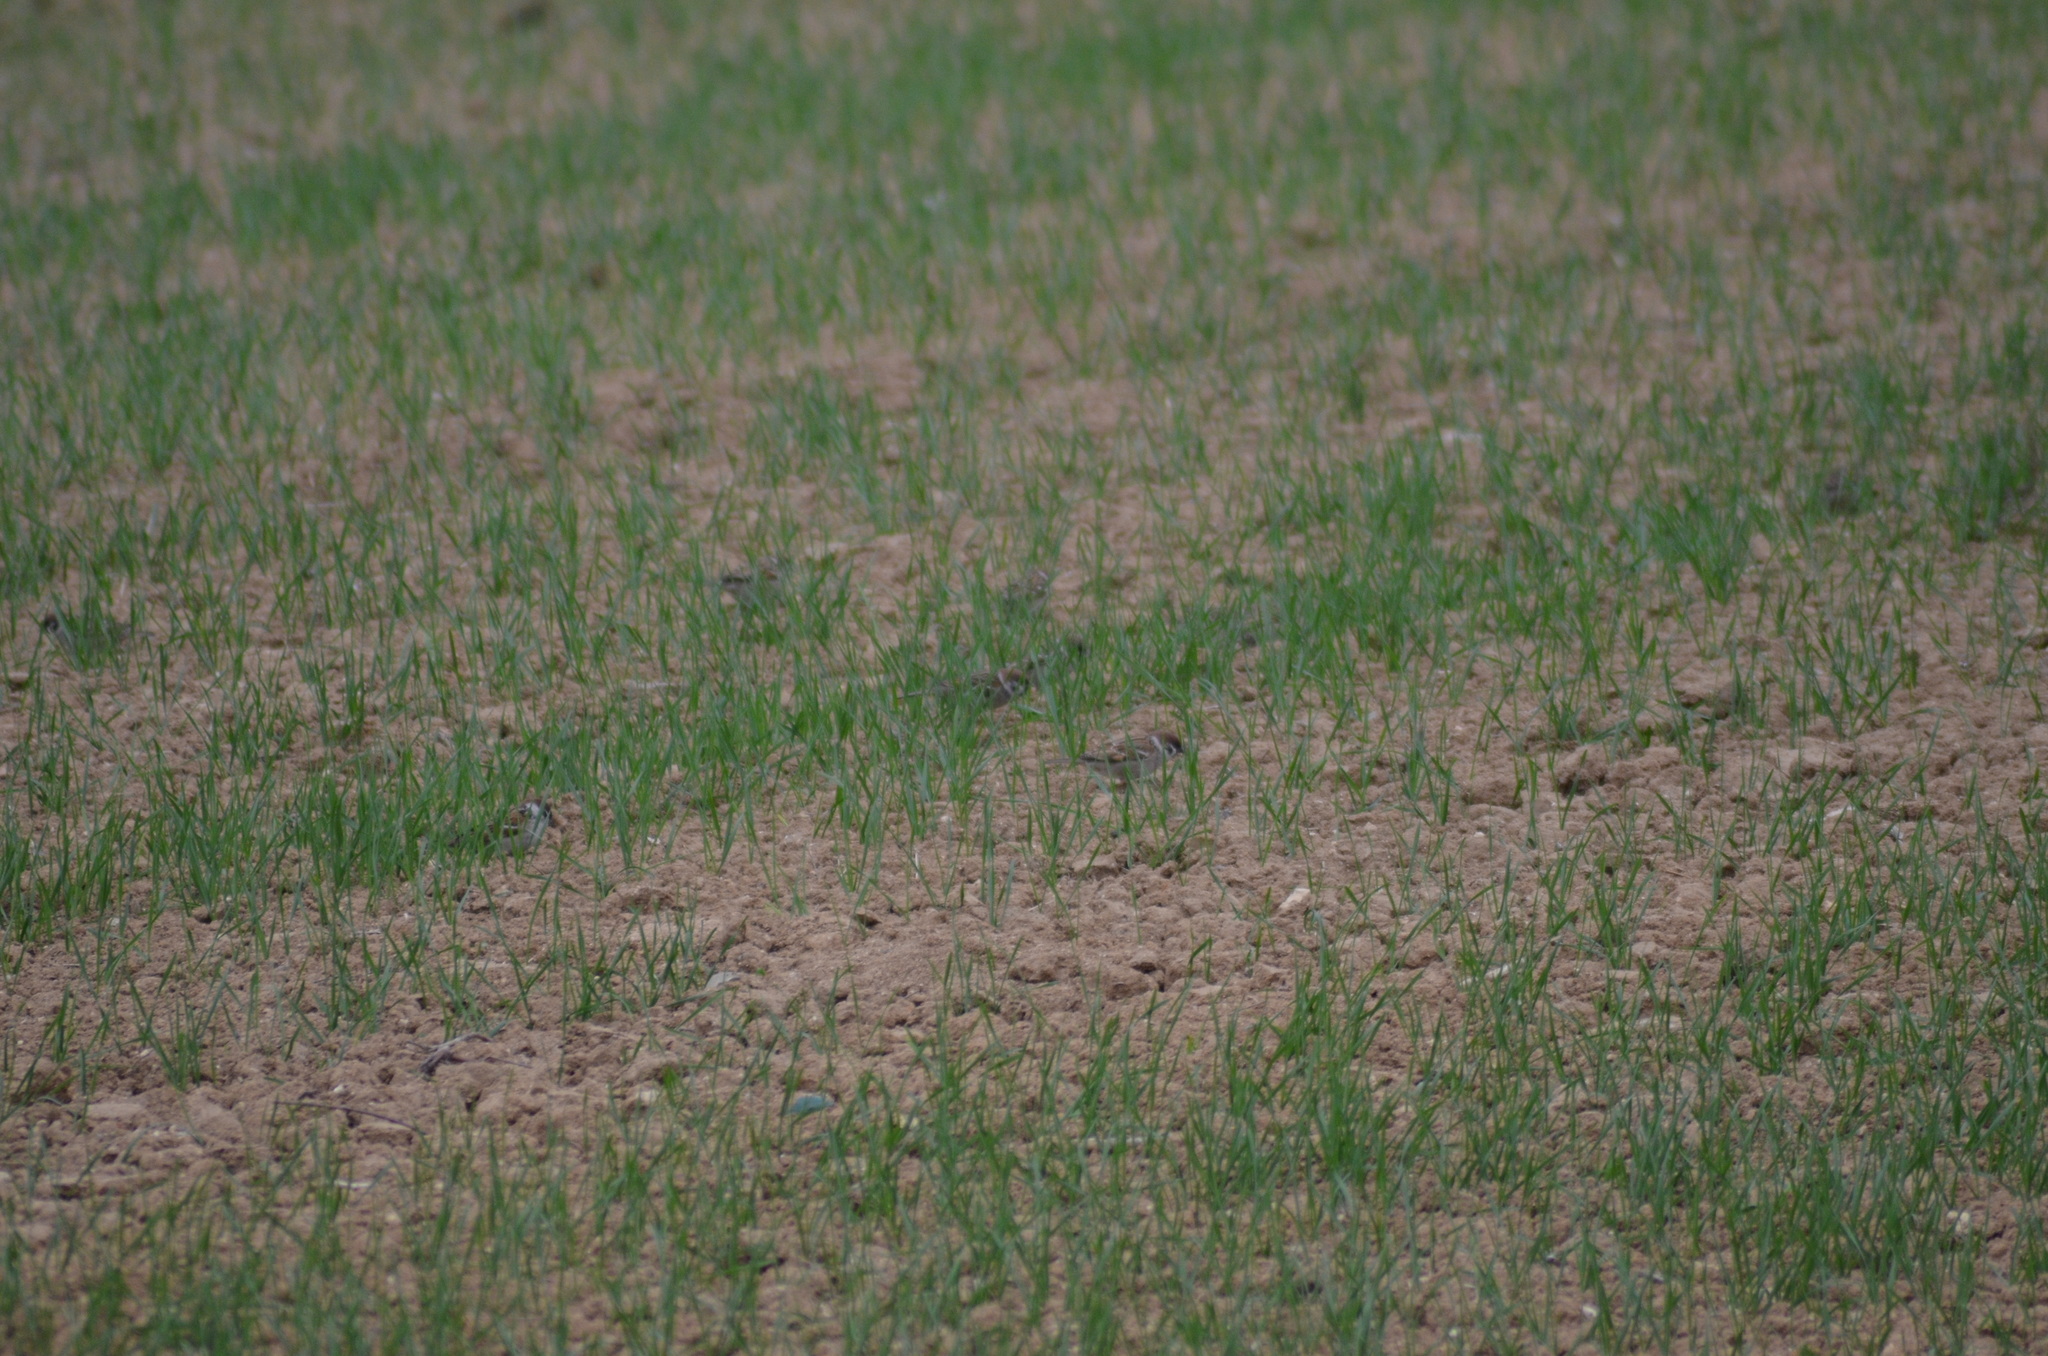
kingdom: Animalia
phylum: Chordata
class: Aves
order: Passeriformes
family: Passeridae
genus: Passer
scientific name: Passer montanus
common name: Eurasian tree sparrow
